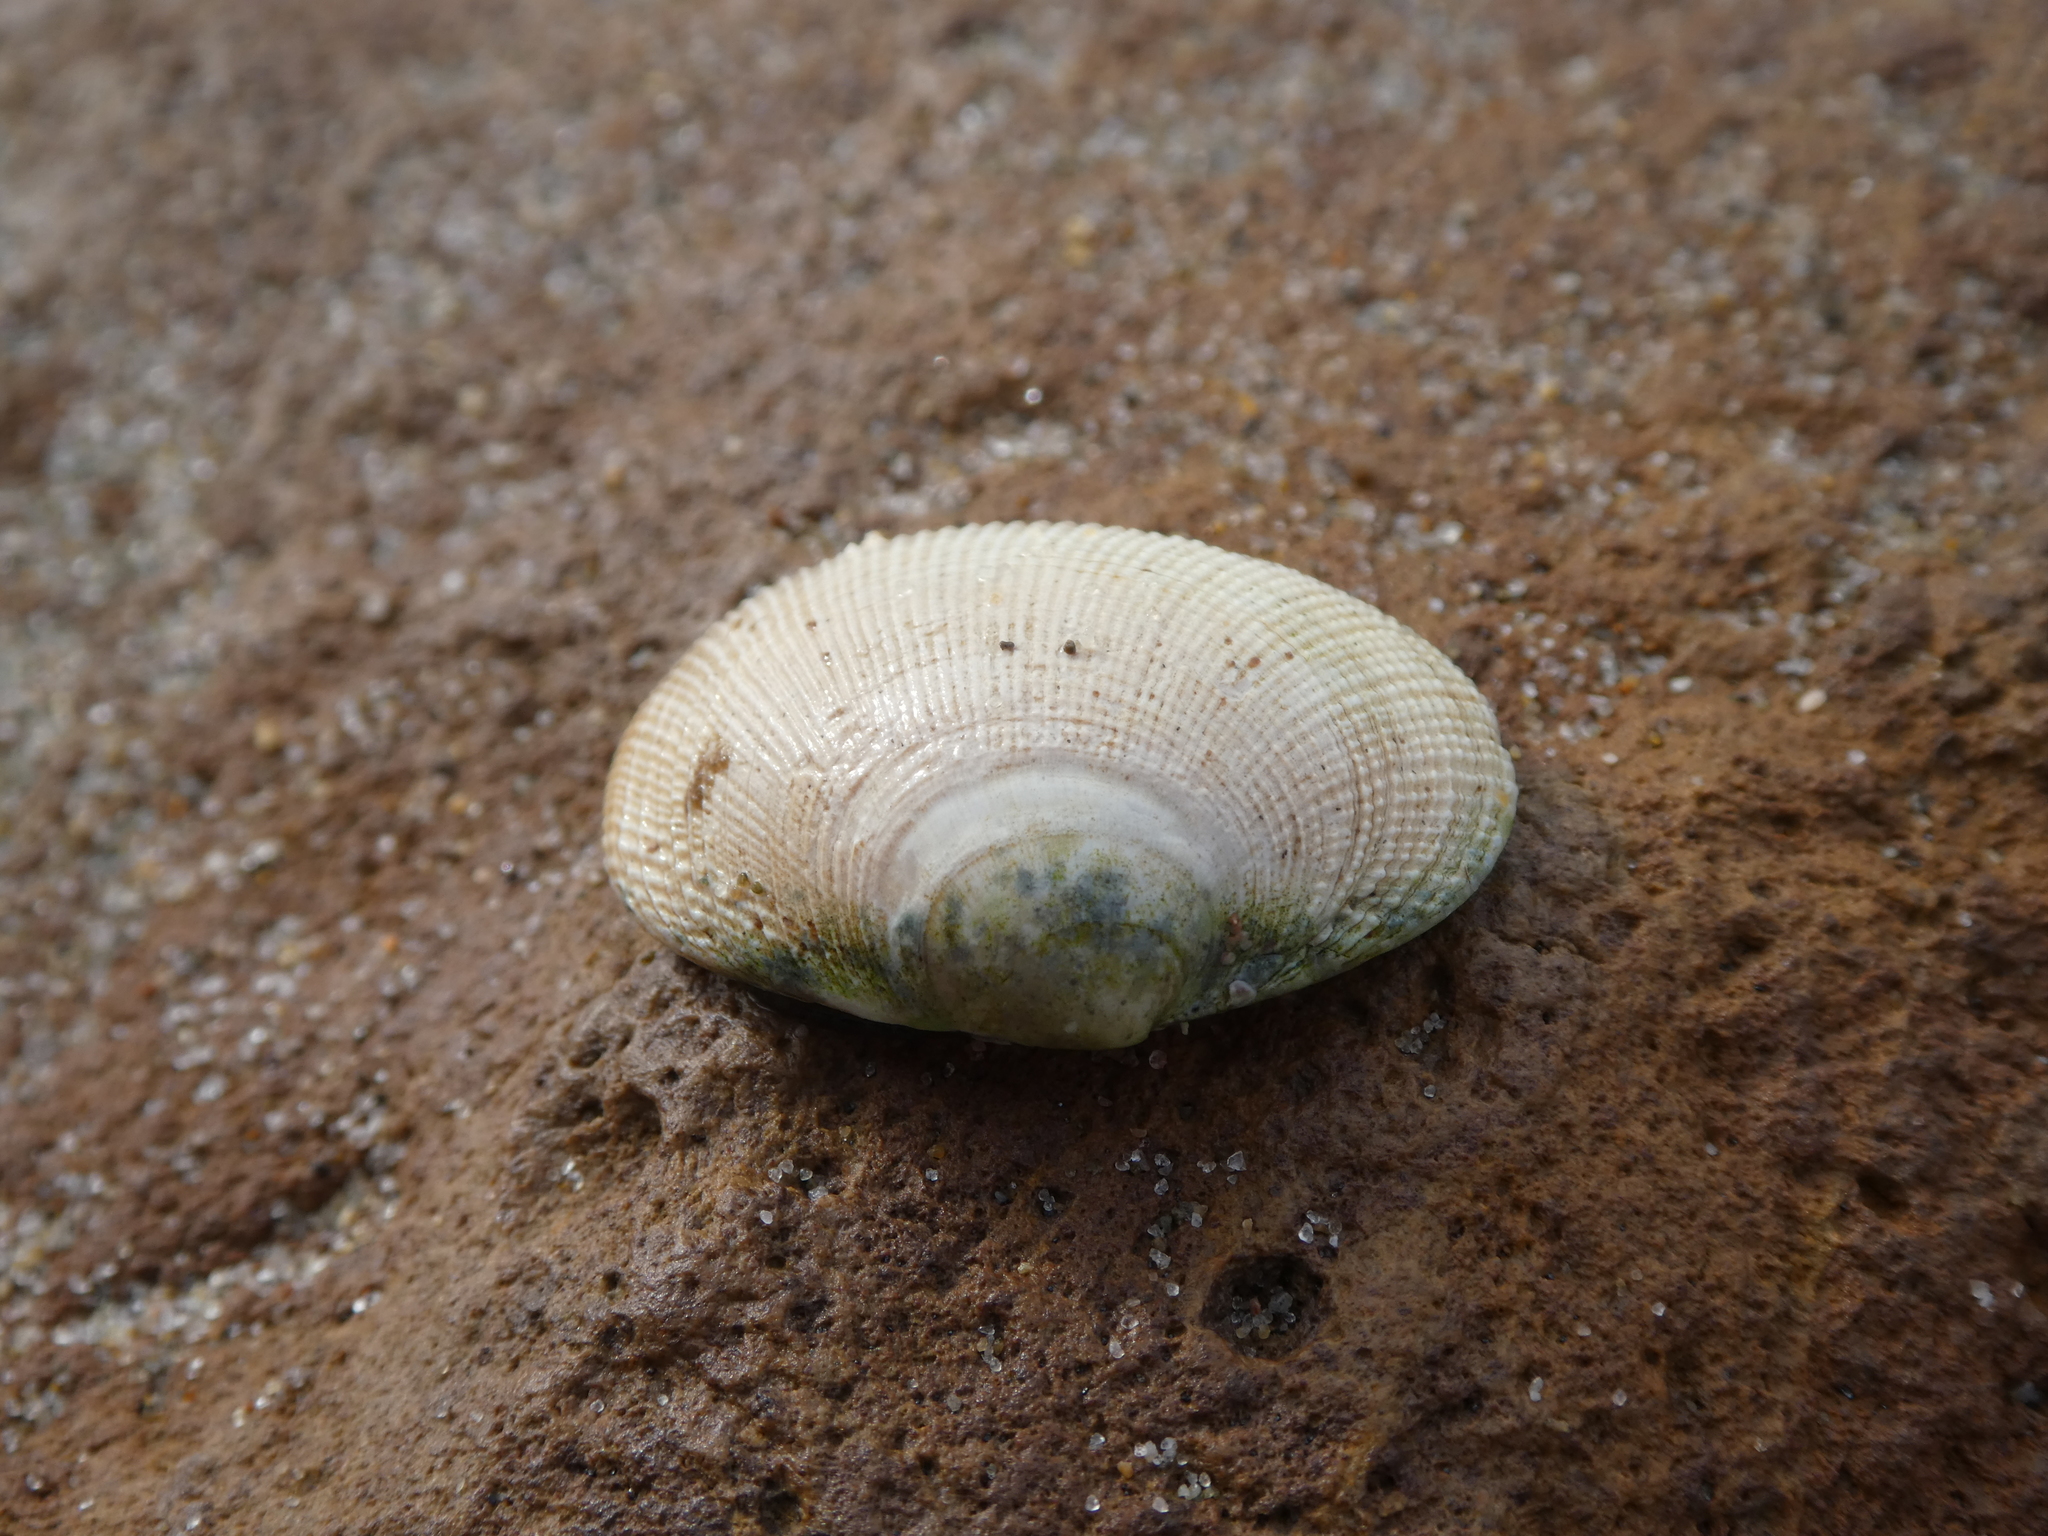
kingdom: Animalia
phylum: Mollusca
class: Bivalvia
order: Venerida
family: Veneridae
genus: Leukoma
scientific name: Leukoma staminea
